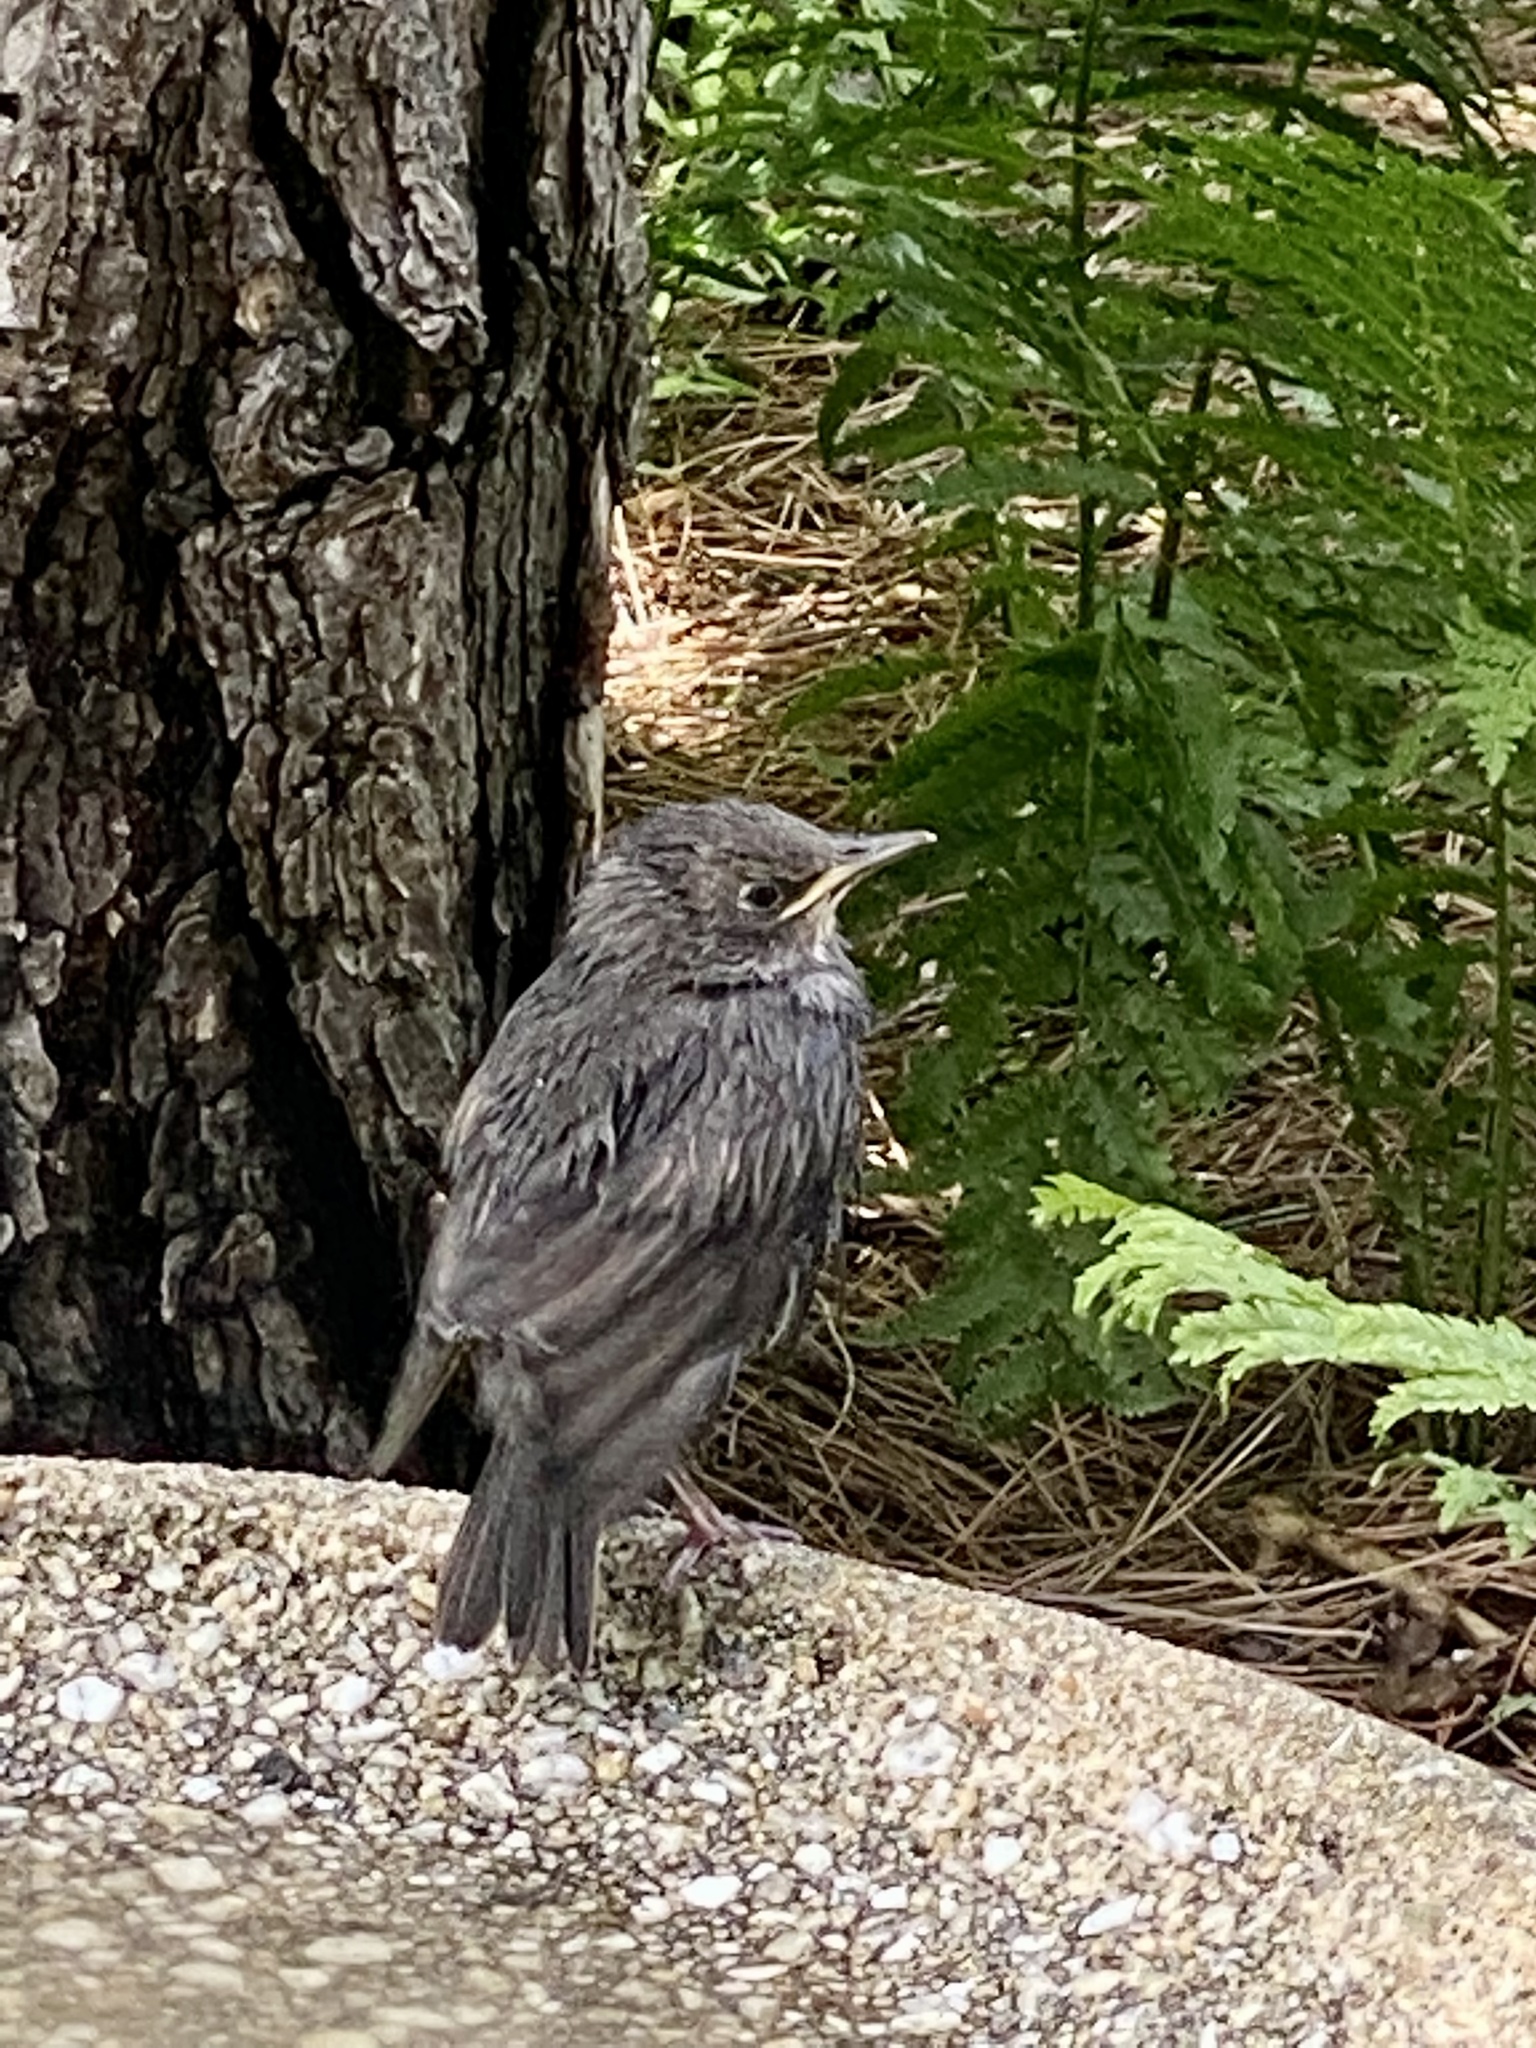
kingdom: Animalia
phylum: Chordata
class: Aves
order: Passeriformes
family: Sturnidae
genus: Sturnus
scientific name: Sturnus vulgaris
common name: Common starling
